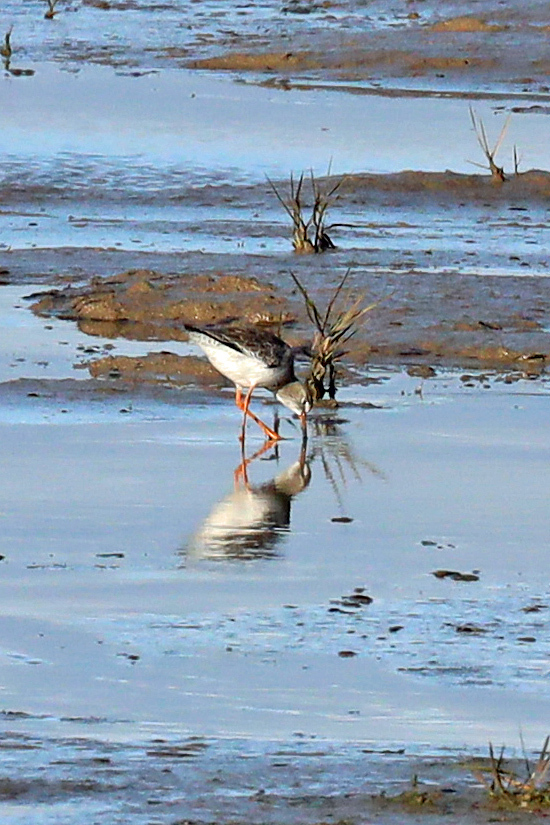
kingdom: Animalia
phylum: Chordata
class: Aves
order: Charadriiformes
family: Scolopacidae
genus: Tringa
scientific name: Tringa totanus
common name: Common redshank
